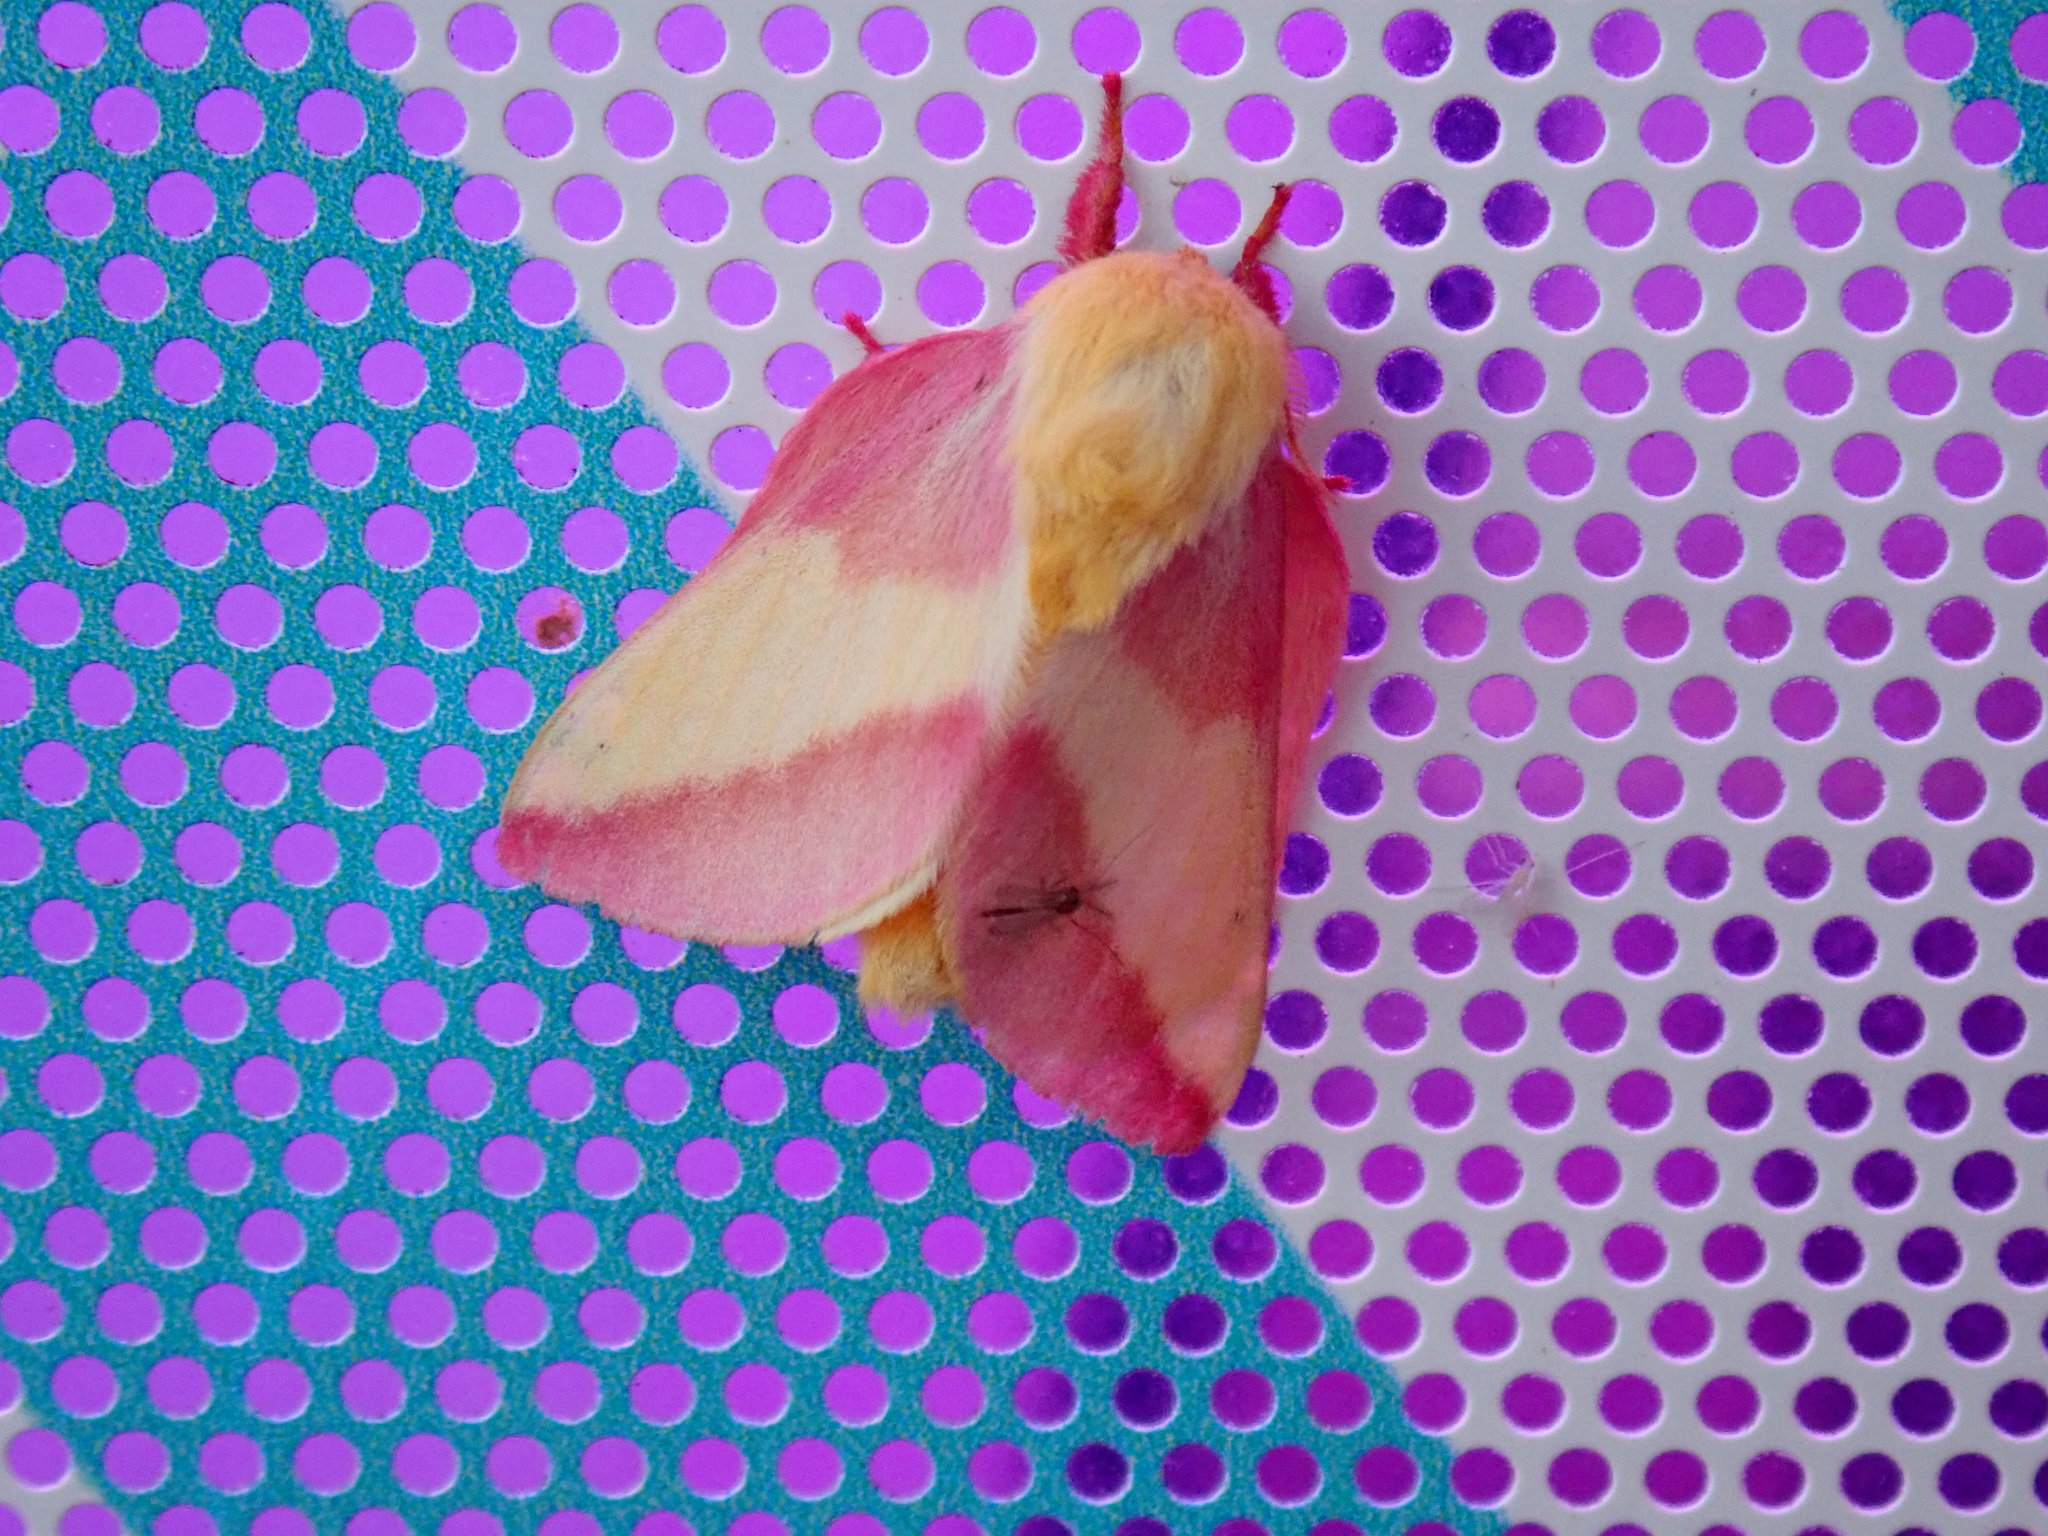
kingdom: Animalia
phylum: Arthropoda
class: Insecta
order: Lepidoptera
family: Saturniidae
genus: Dryocampa
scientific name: Dryocampa rubicunda
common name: Rosy maple moth
